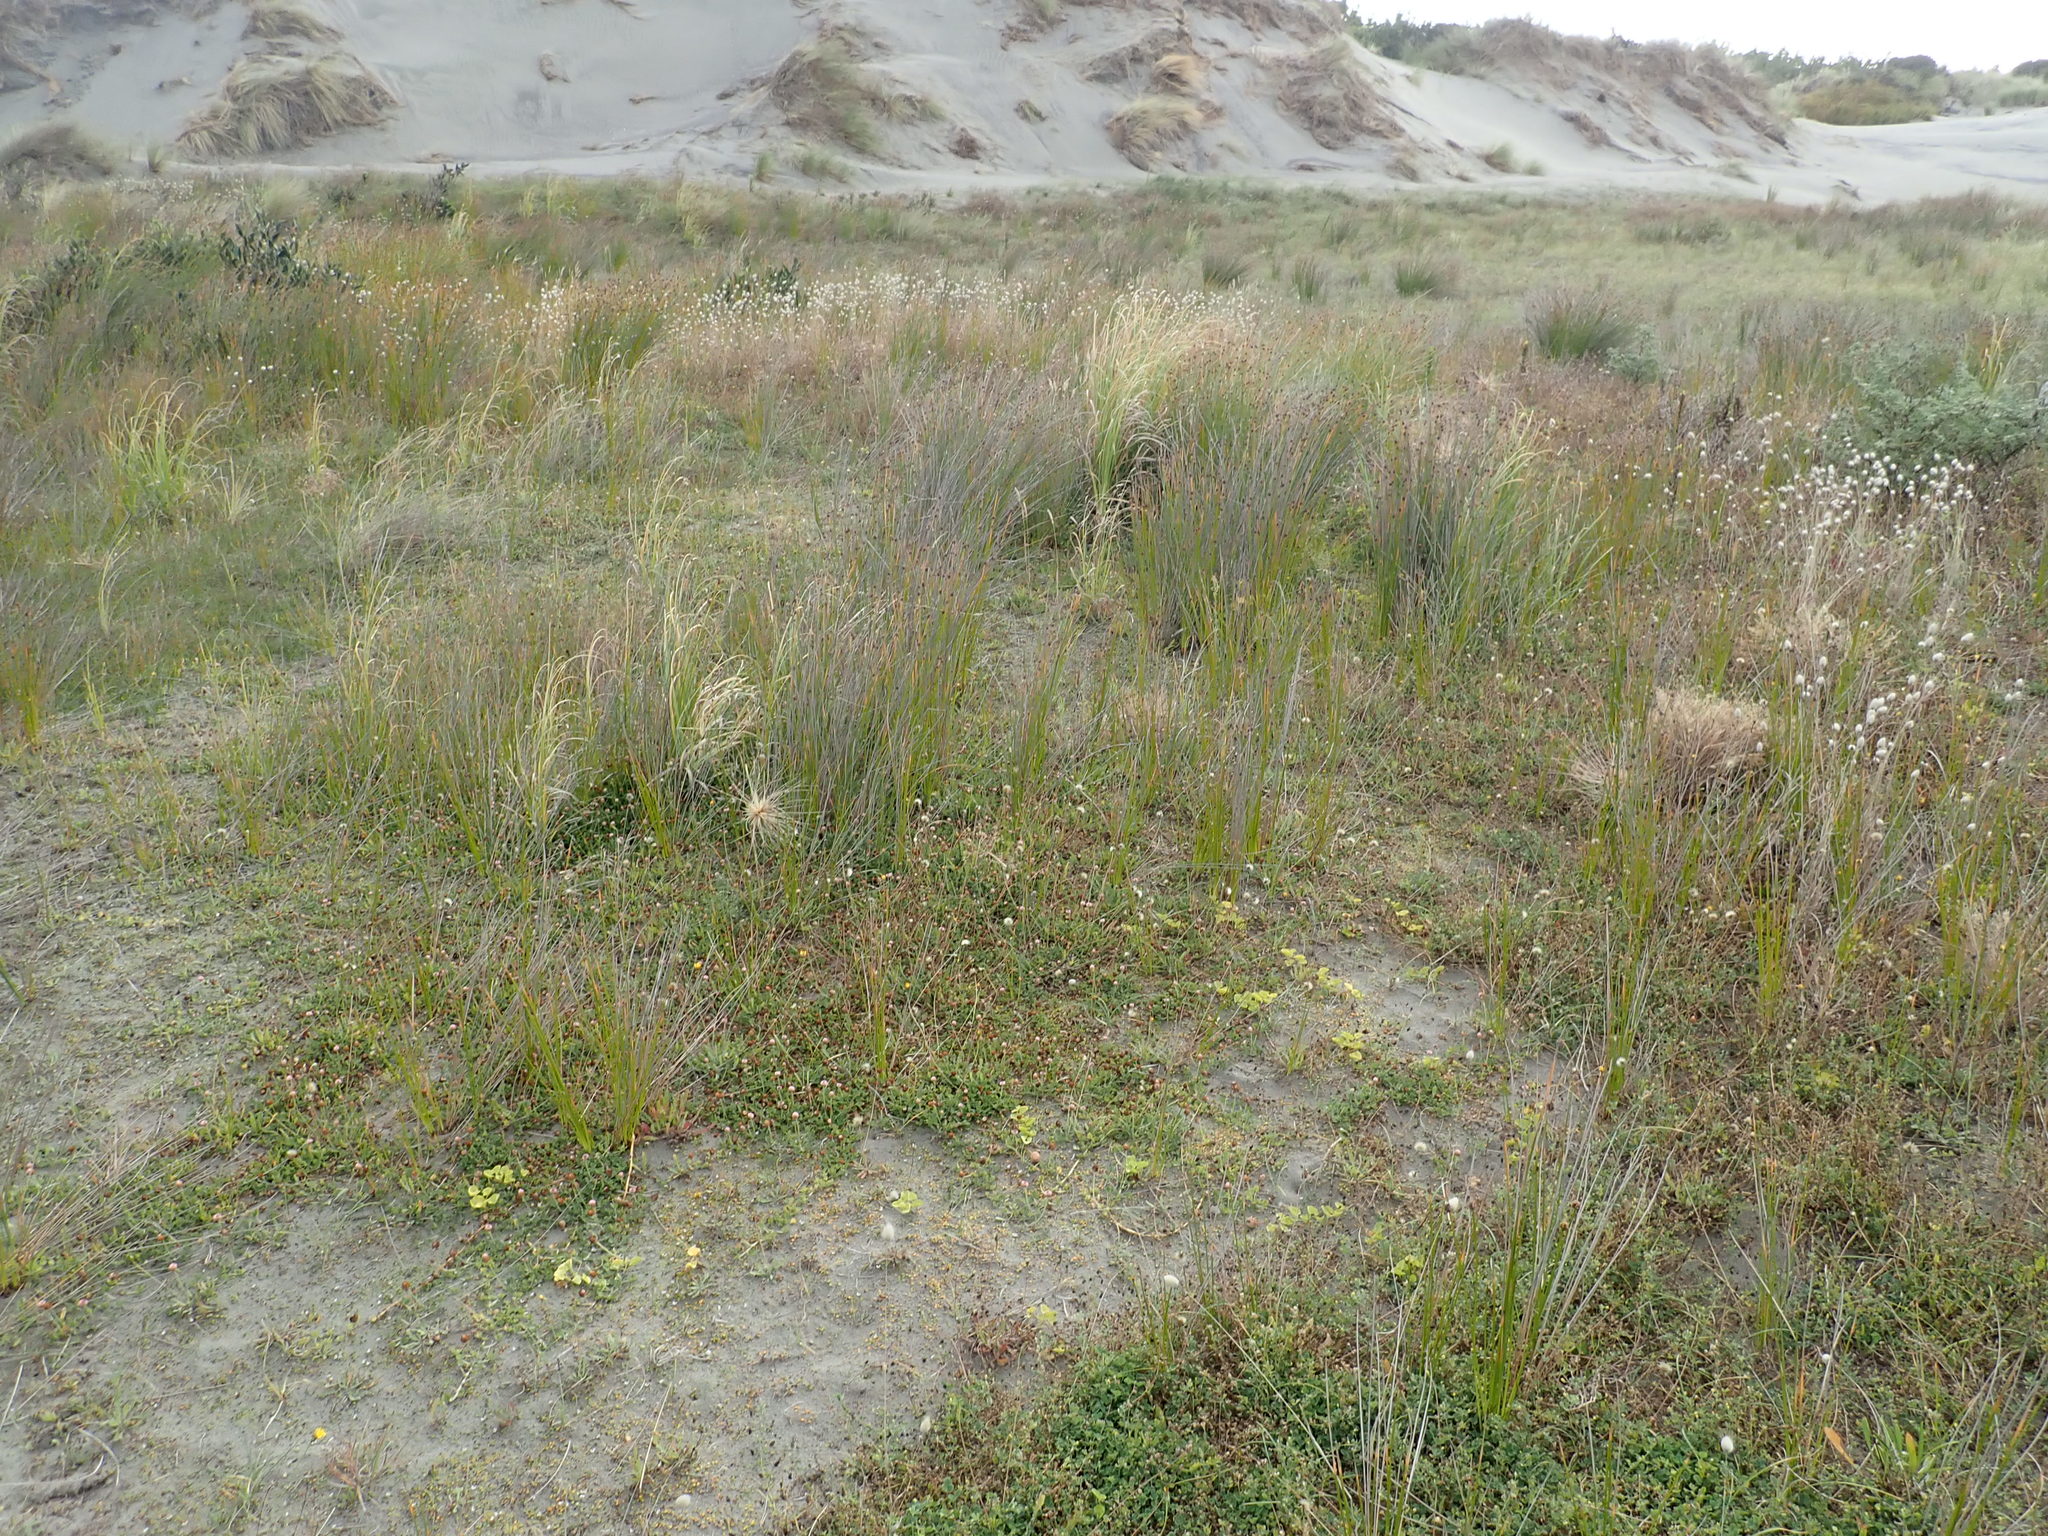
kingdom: Plantae
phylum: Tracheophyta
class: Magnoliopsida
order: Fabales
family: Fabaceae
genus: Trifolium
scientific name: Trifolium fragiferum
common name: Strawberry clover
